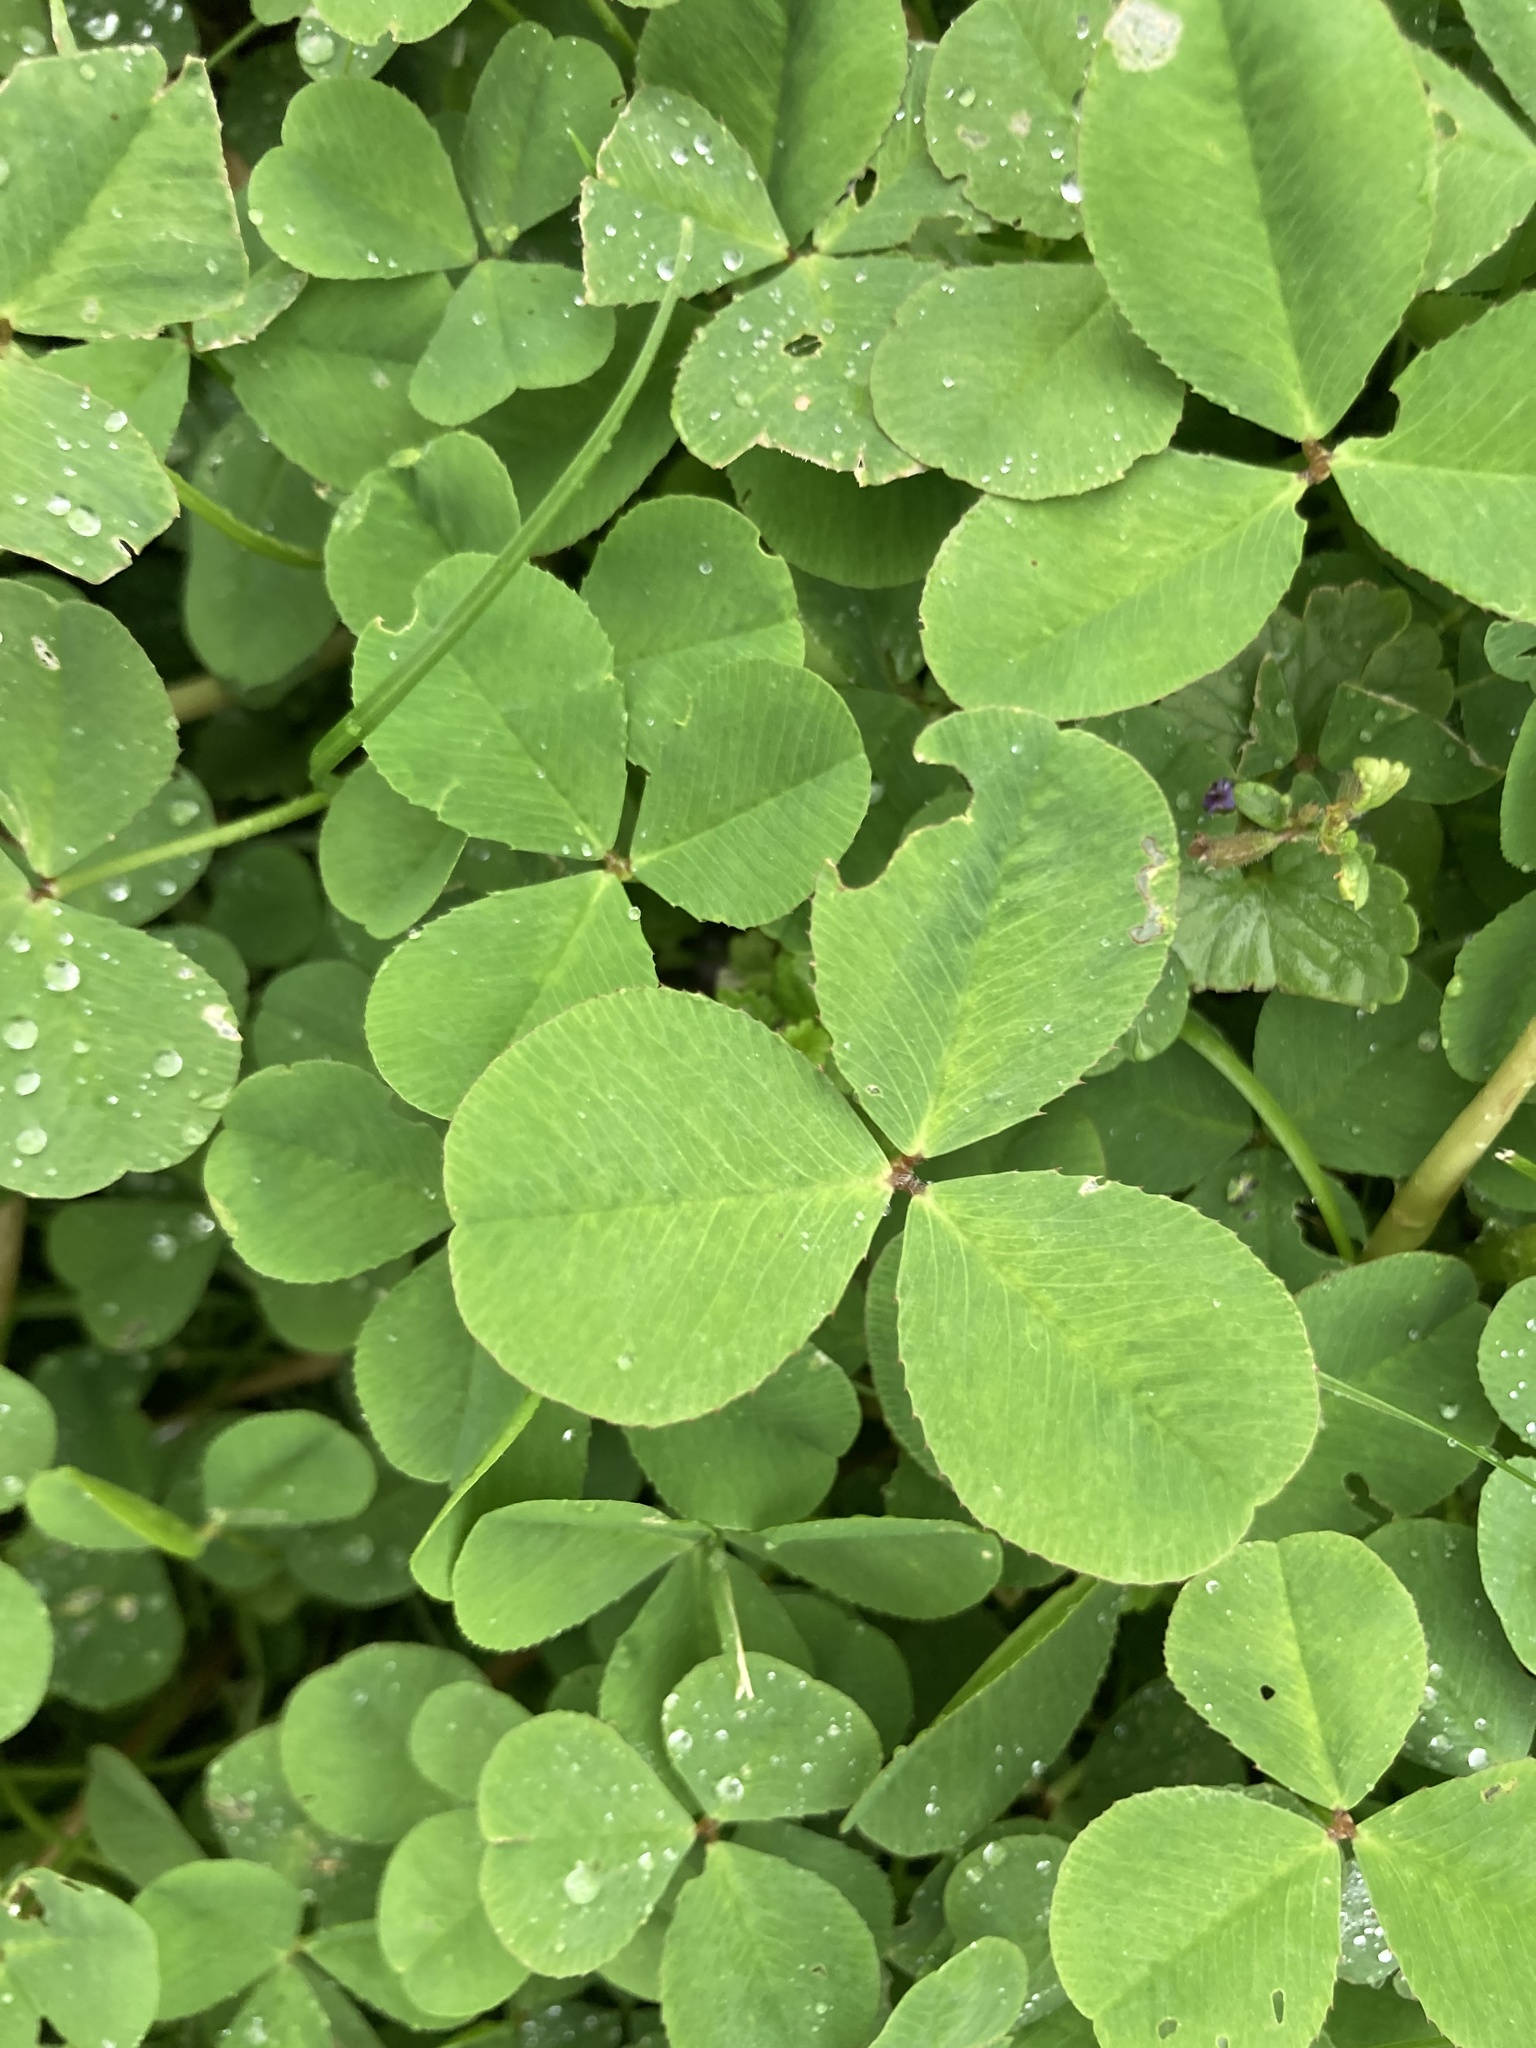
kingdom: Plantae
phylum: Tracheophyta
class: Magnoliopsida
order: Fabales
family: Fabaceae
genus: Trifolium
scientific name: Trifolium repens
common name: White clover
